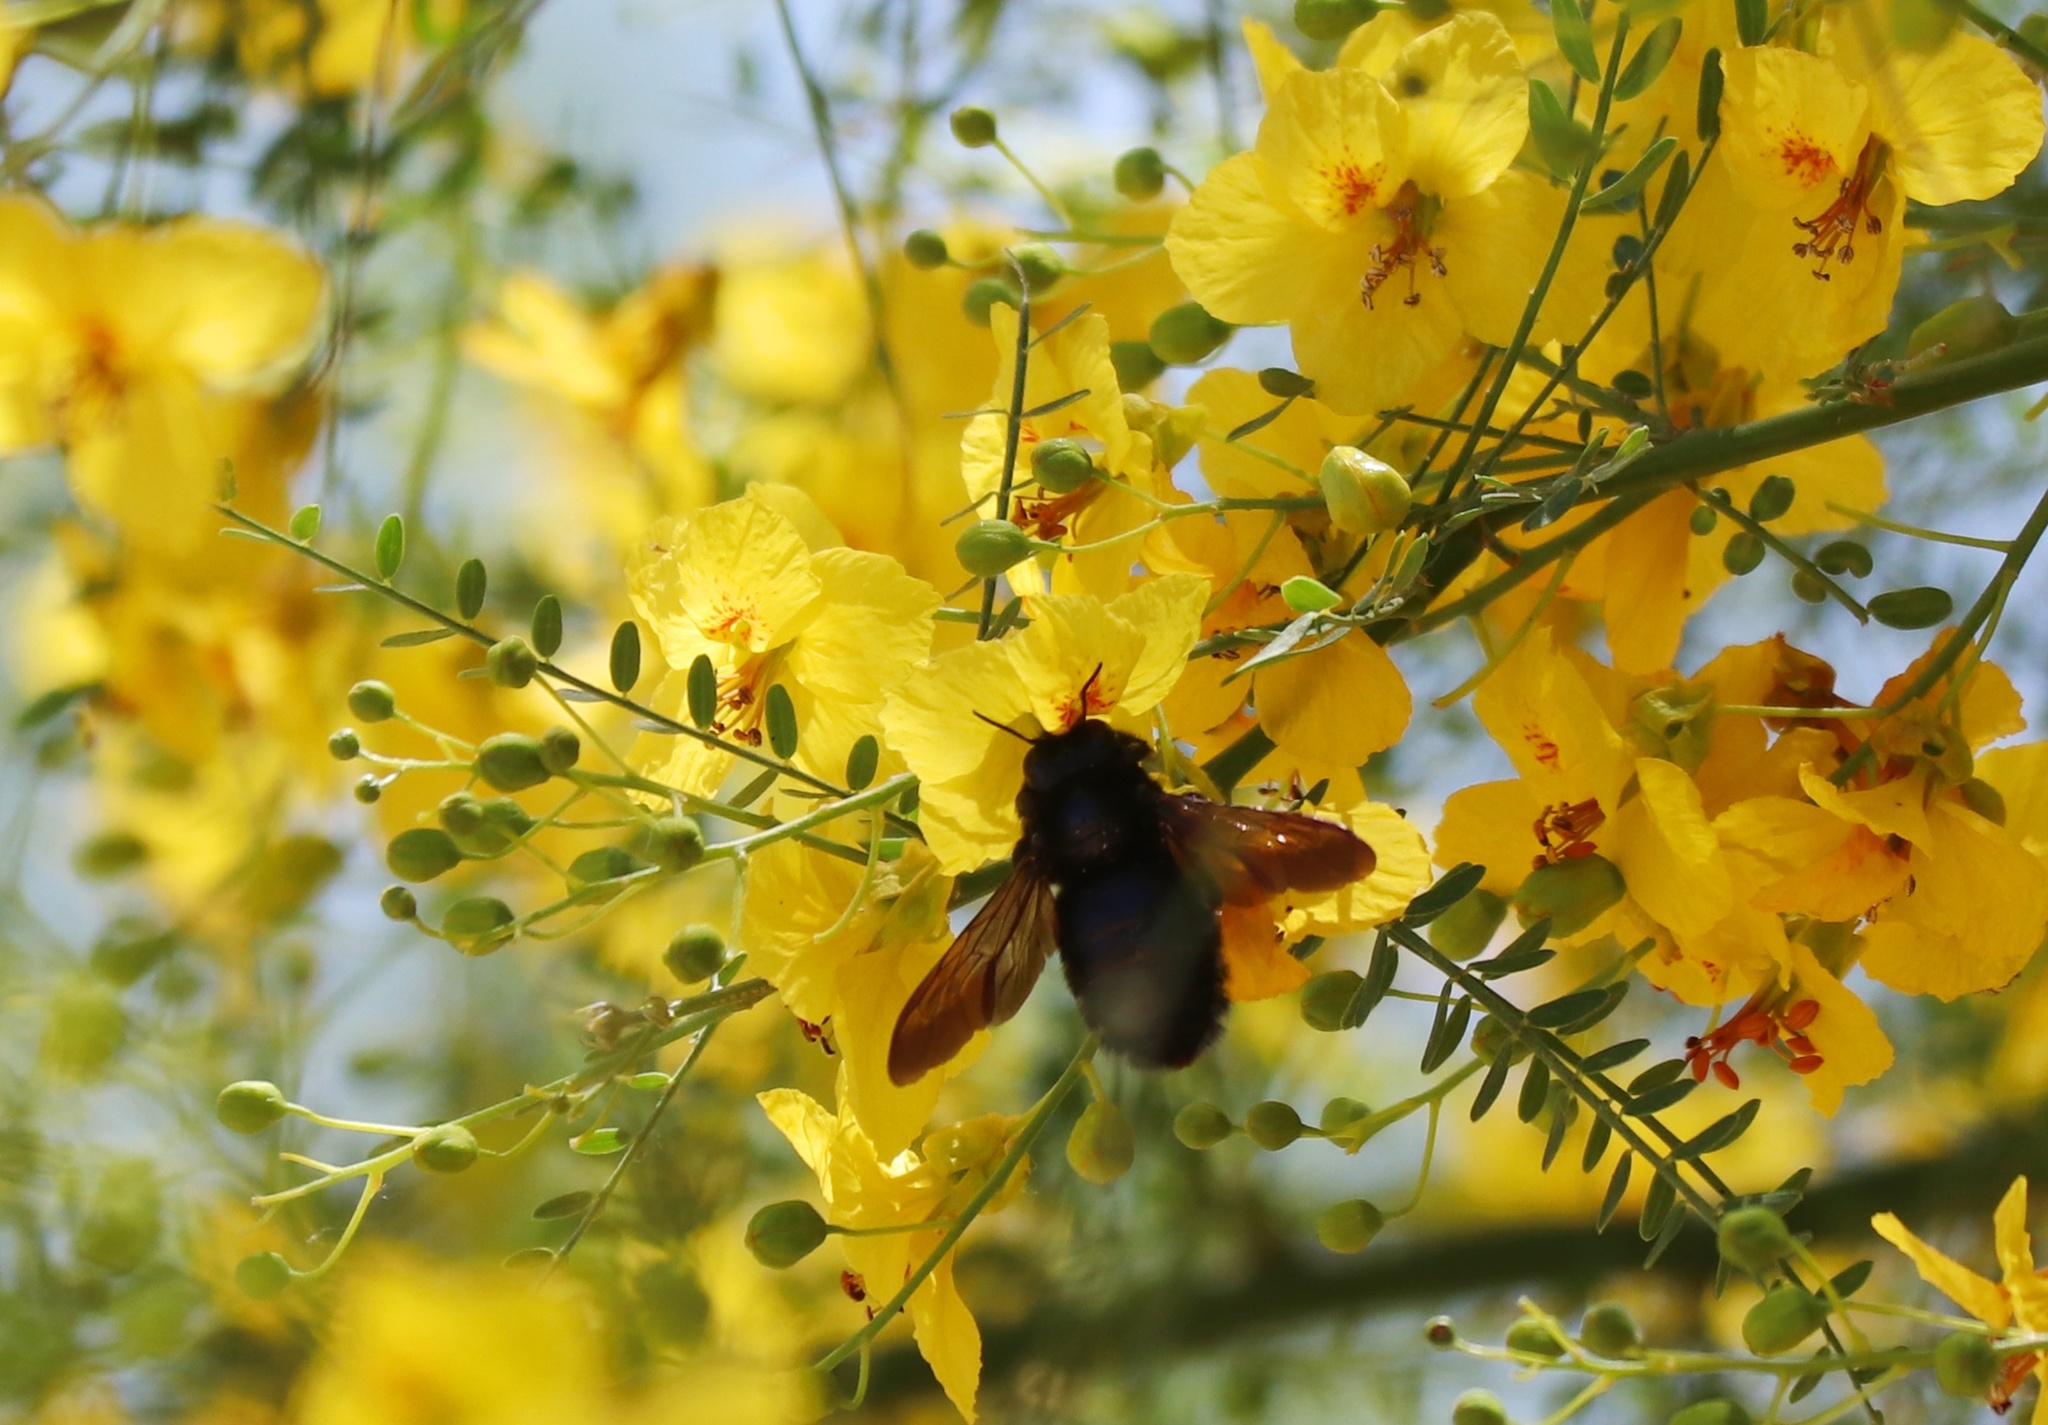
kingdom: Animalia
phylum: Arthropoda
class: Insecta
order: Hymenoptera
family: Apidae
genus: Xylocopa
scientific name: Xylocopa sonorina
